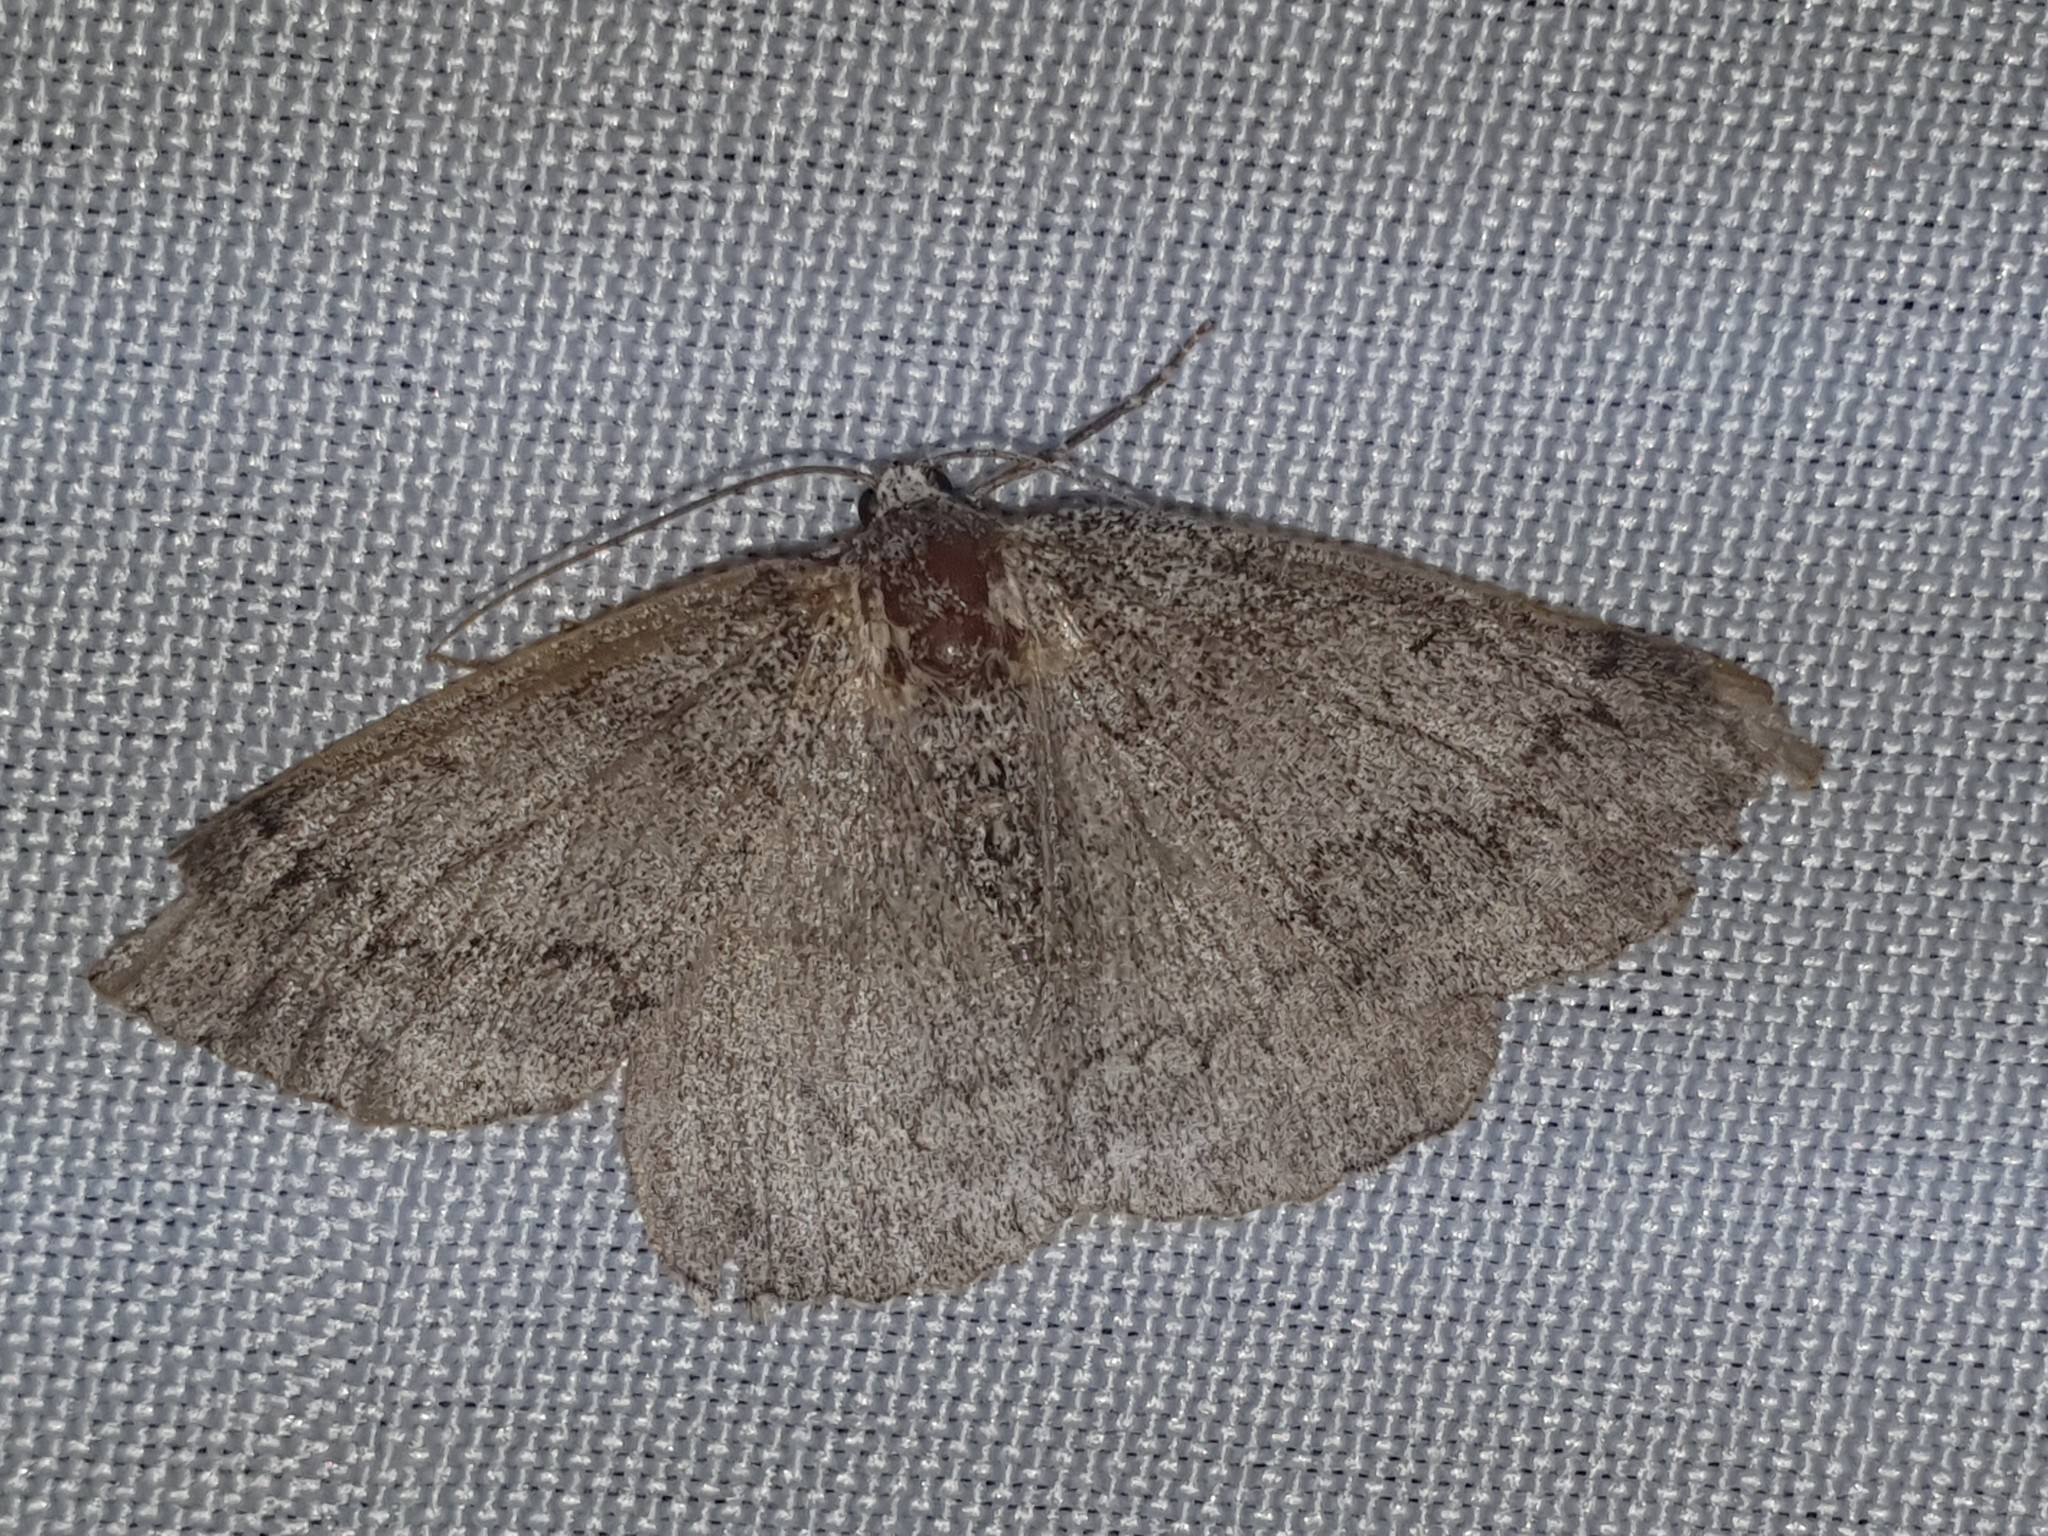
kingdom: Animalia
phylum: Arthropoda
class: Insecta
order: Lepidoptera
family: Geometridae
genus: Pseudoterpna
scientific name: Pseudoterpna coronillaria
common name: Jersey emerald
